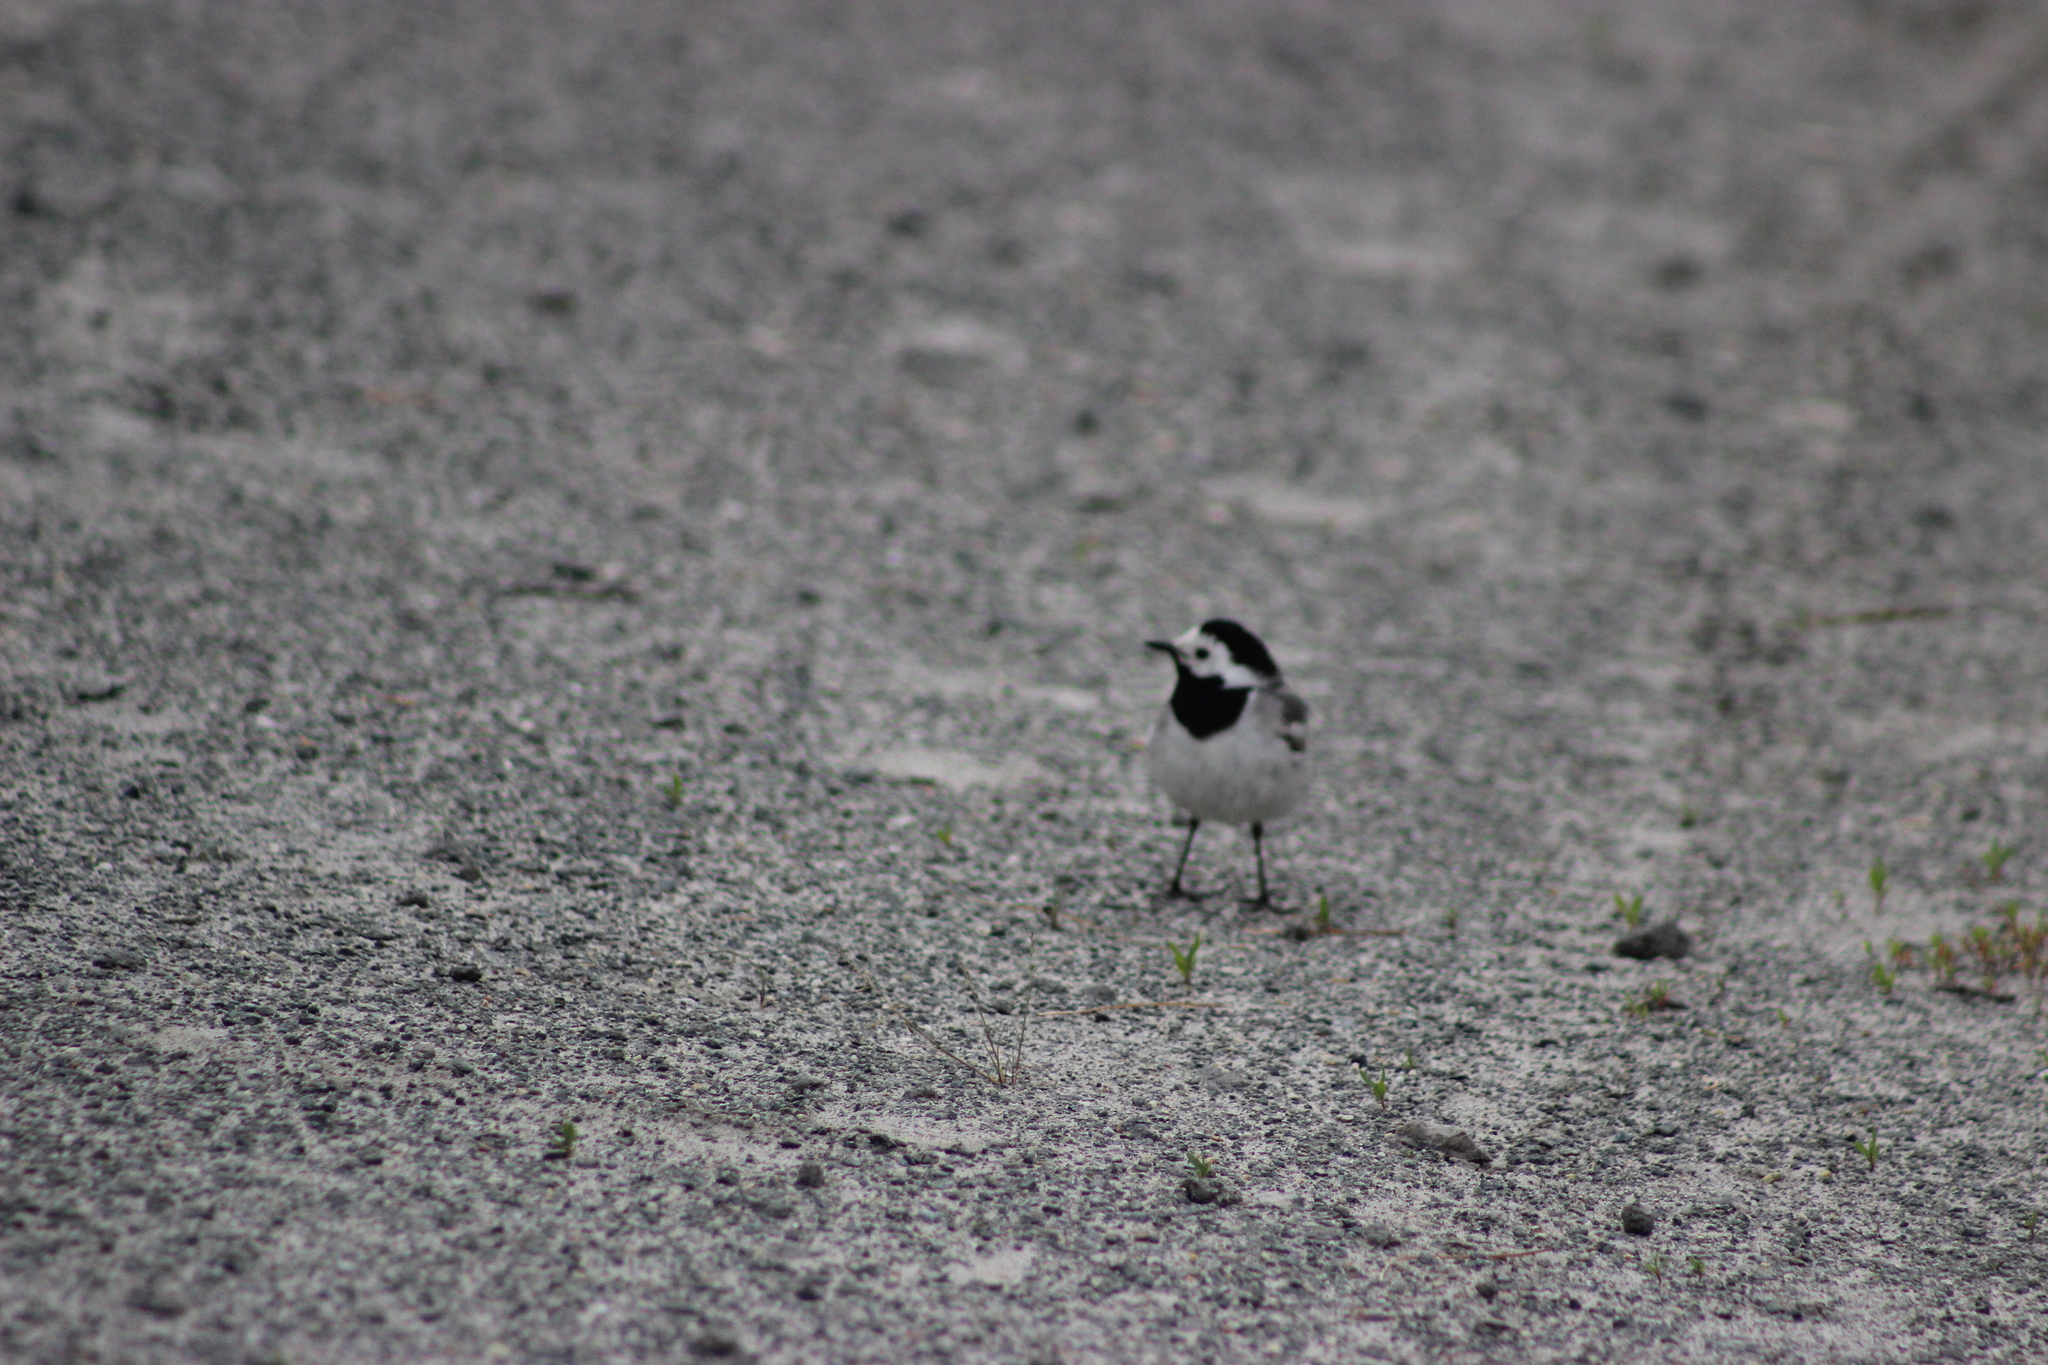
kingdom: Animalia
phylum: Chordata
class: Aves
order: Passeriformes
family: Motacillidae
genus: Motacilla
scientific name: Motacilla alba
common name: White wagtail
